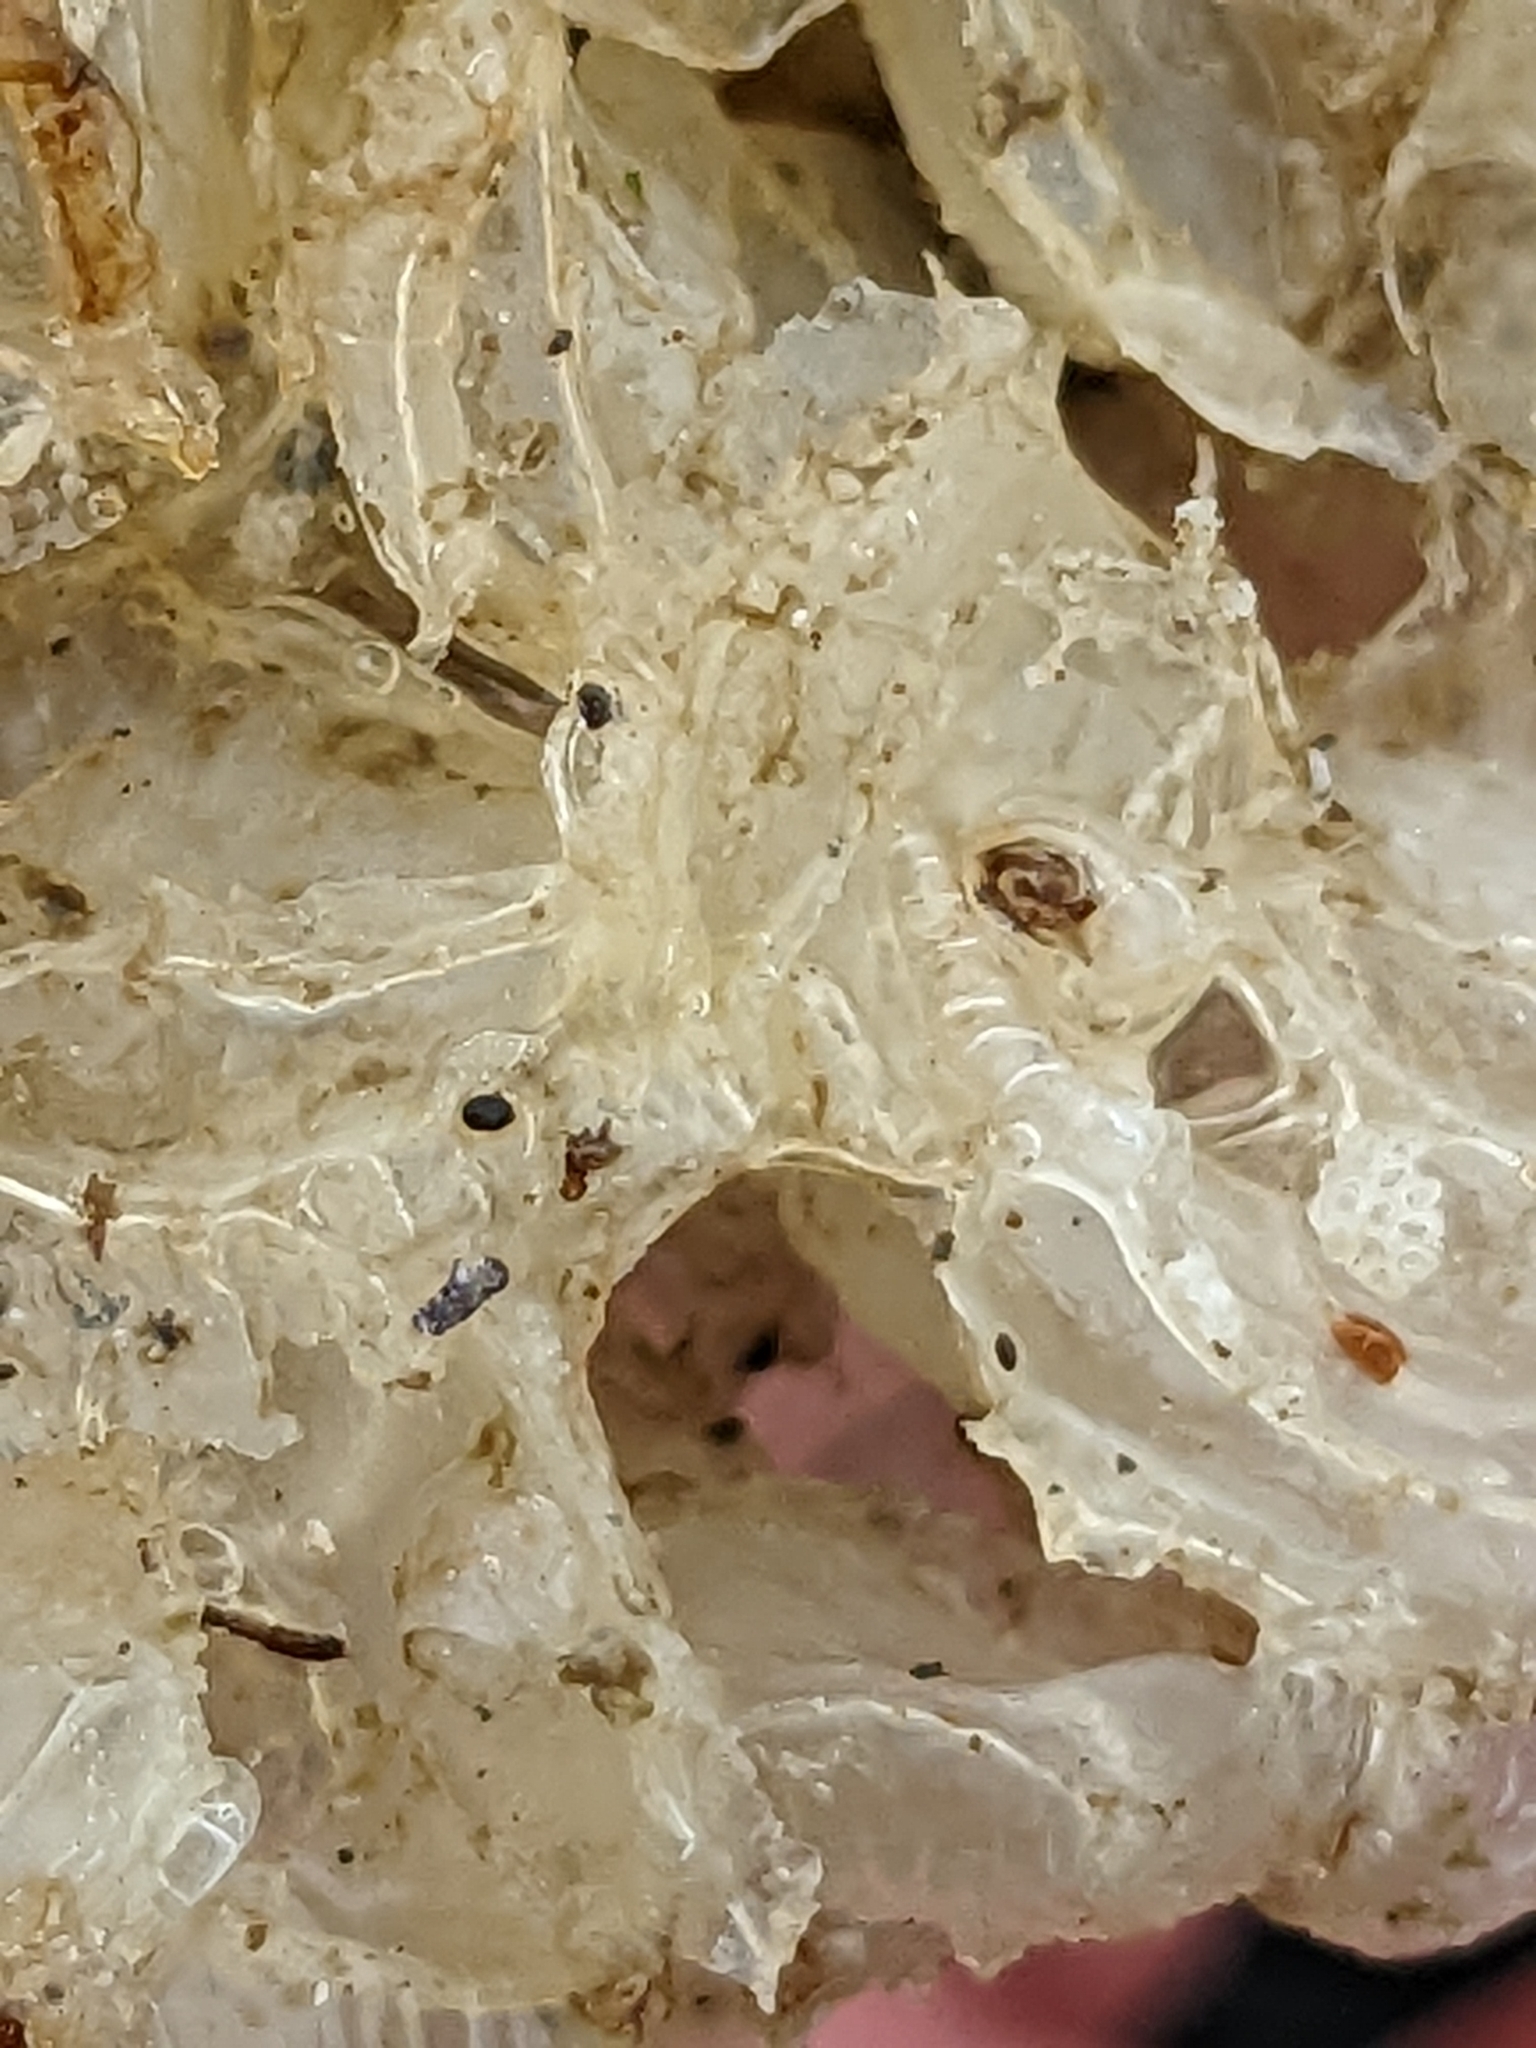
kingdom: Animalia
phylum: Mollusca
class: Gastropoda
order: Neogastropoda
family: Buccinidae
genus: Buccinum
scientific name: Buccinum undatum
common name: Common whelk
